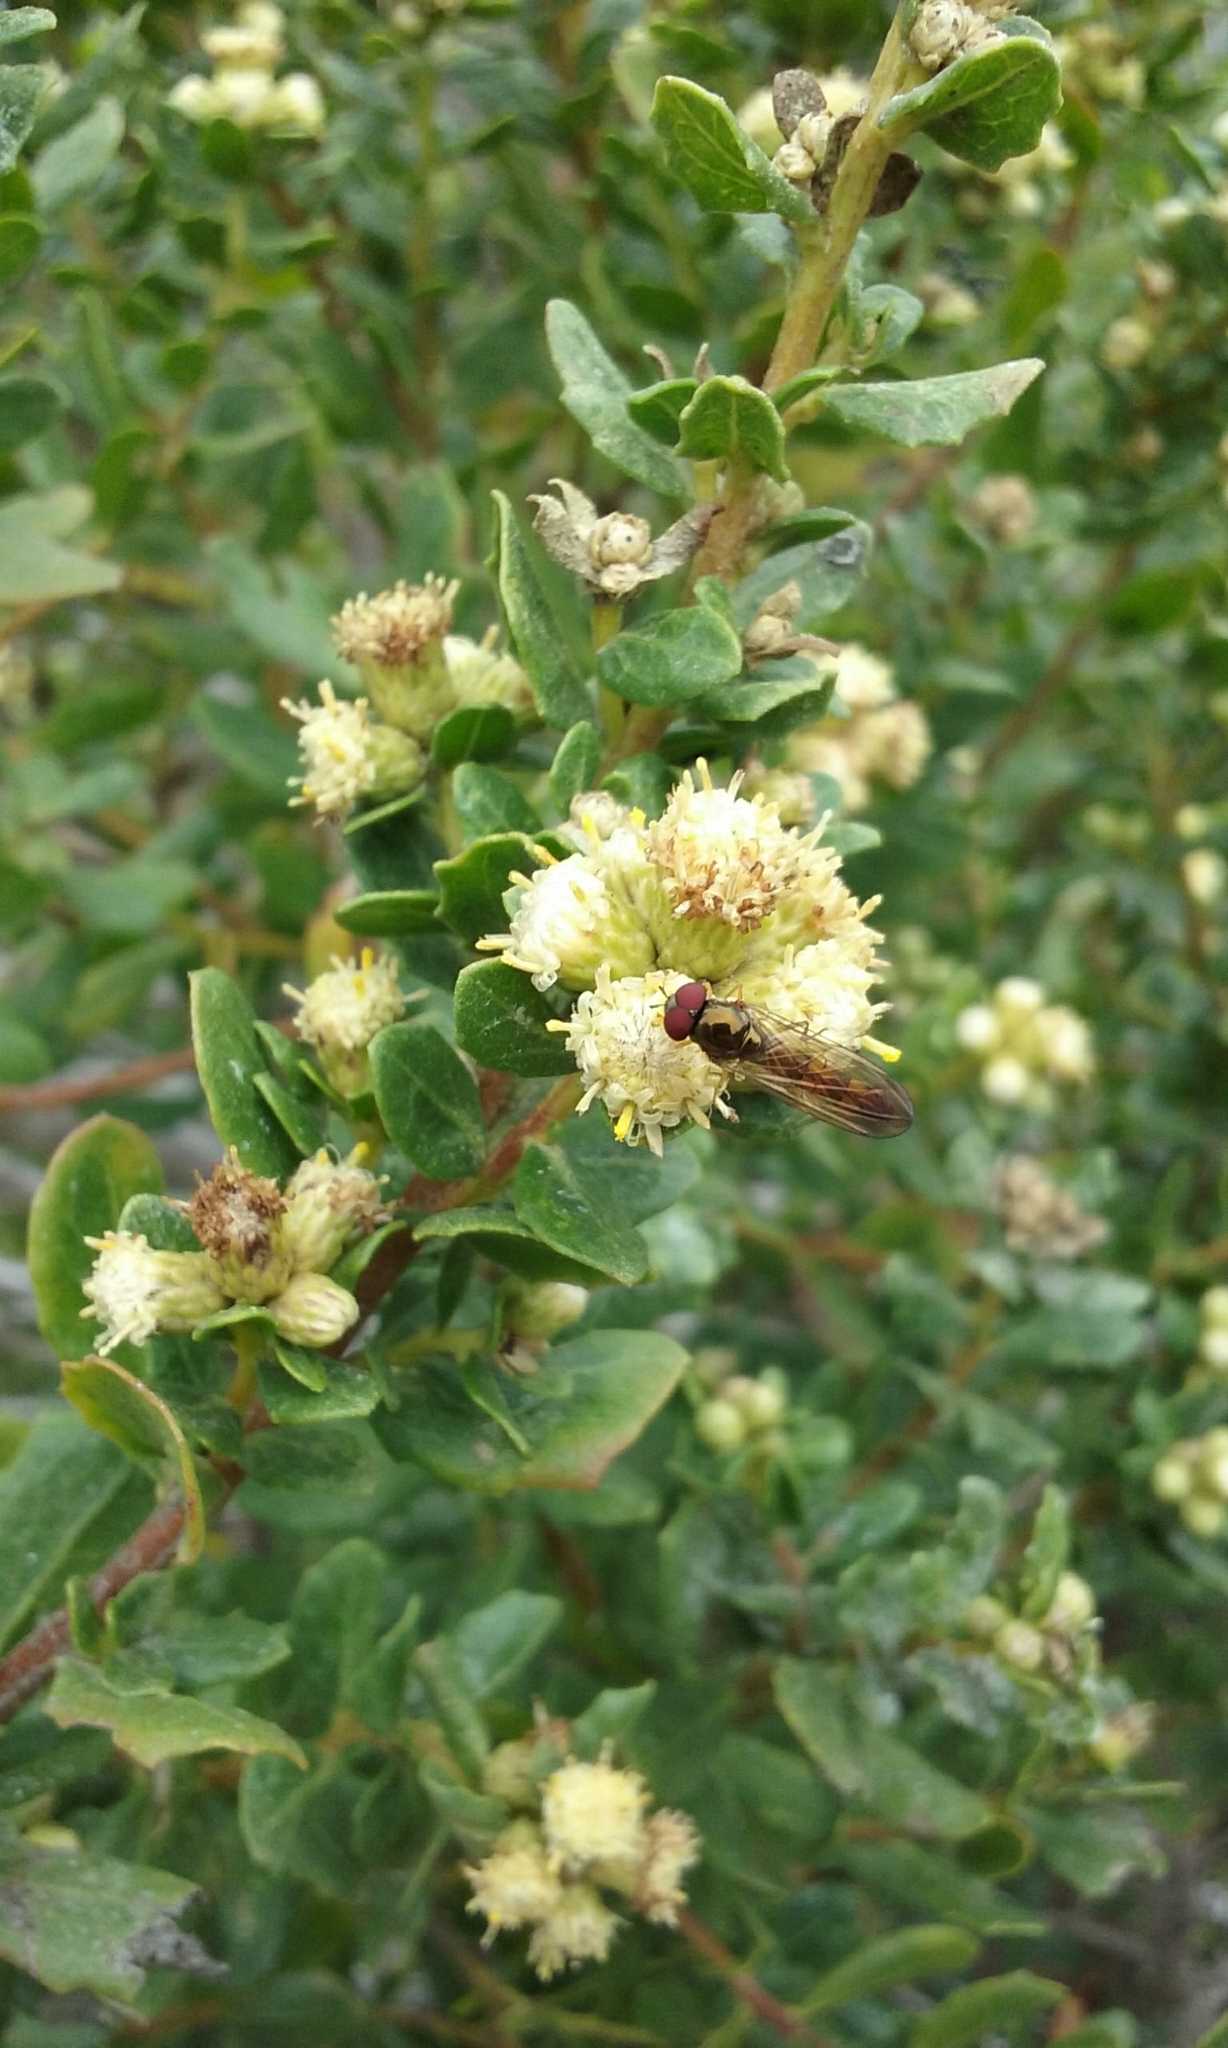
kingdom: Plantae
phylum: Tracheophyta
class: Magnoliopsida
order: Asterales
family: Asteraceae
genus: Baccharis
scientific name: Baccharis pilularis
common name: Coyotebrush
